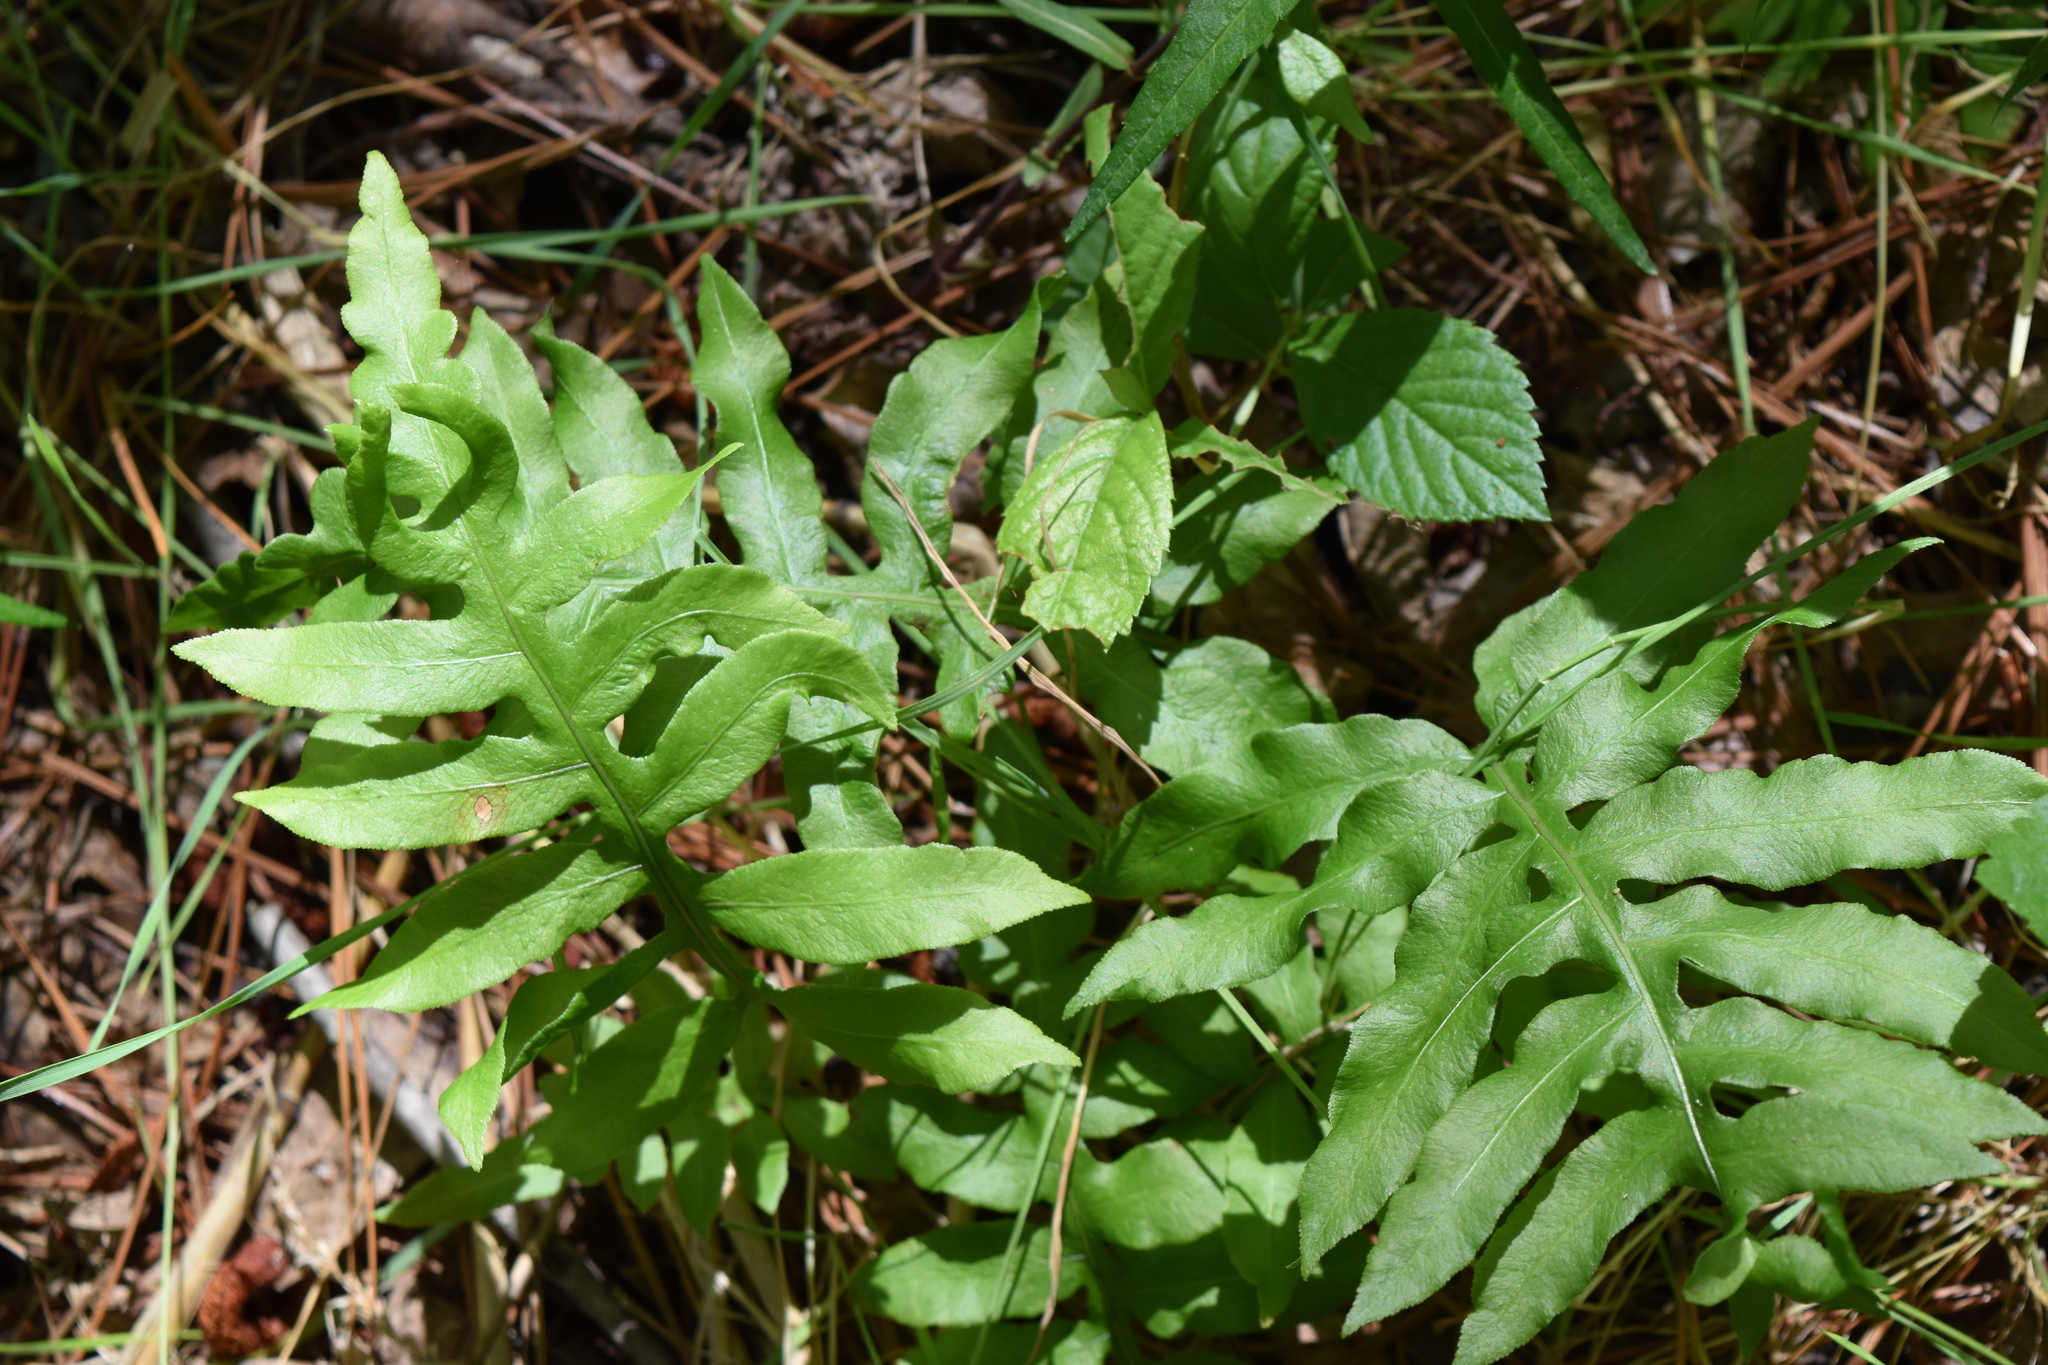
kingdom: Plantae
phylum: Tracheophyta
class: Polypodiopsida
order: Polypodiales
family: Blechnaceae
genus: Lorinseria
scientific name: Lorinseria areolata
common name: Dwarf chain fern
